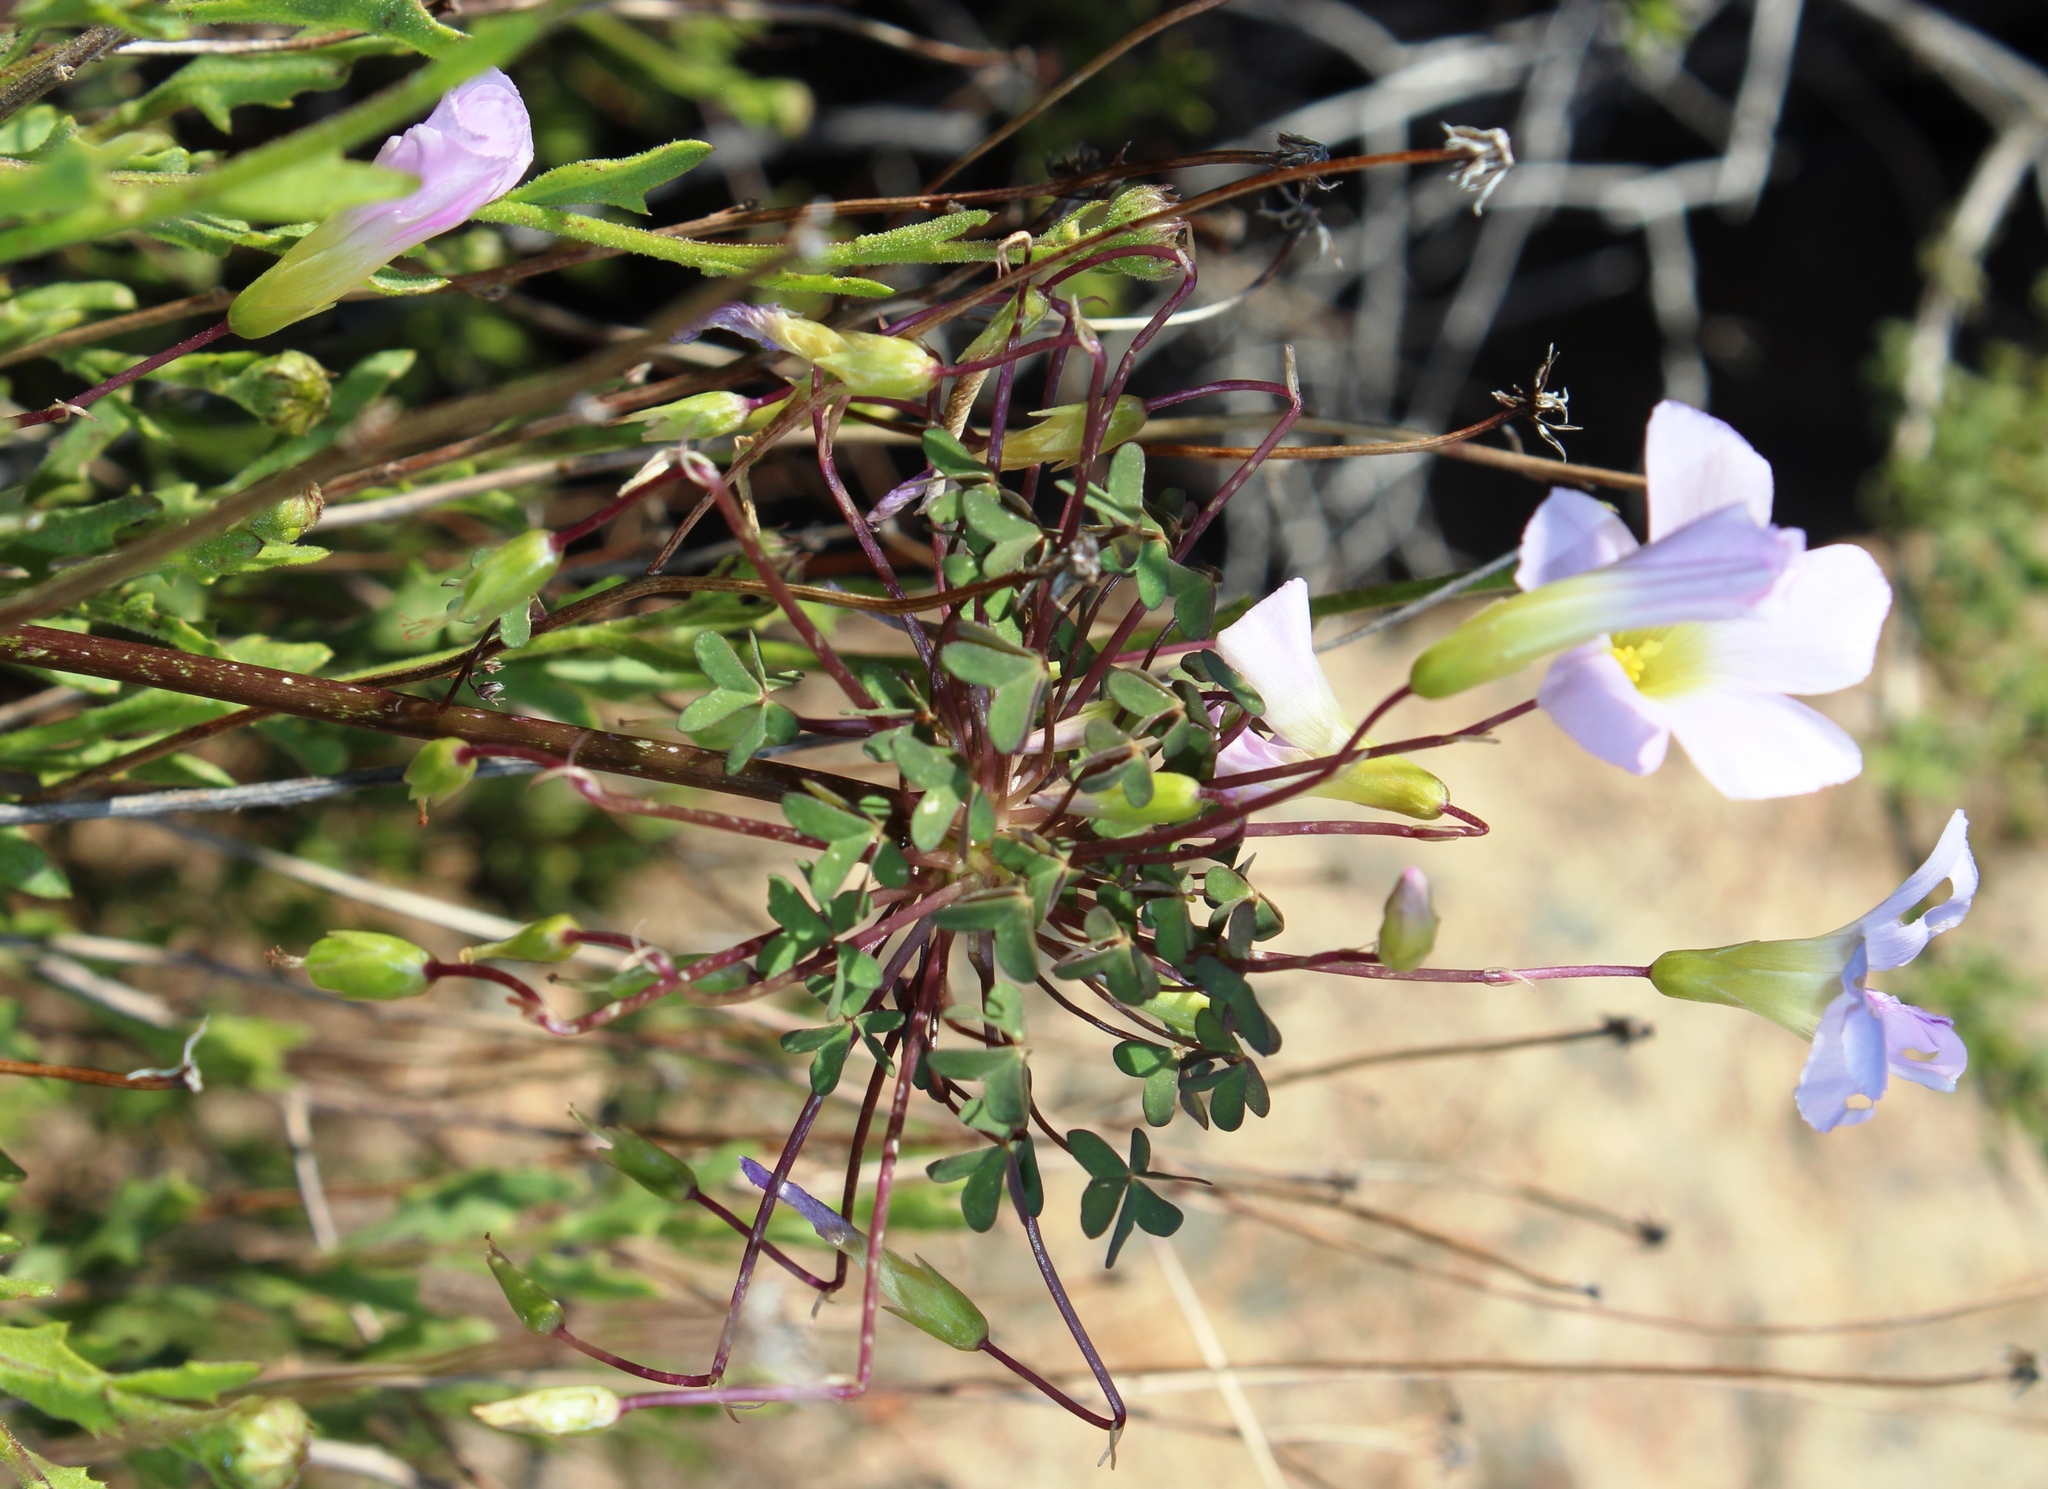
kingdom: Plantae
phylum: Tracheophyta
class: Magnoliopsida
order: Oxalidales
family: Oxalidaceae
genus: Oxalis
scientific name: Oxalis comosa
